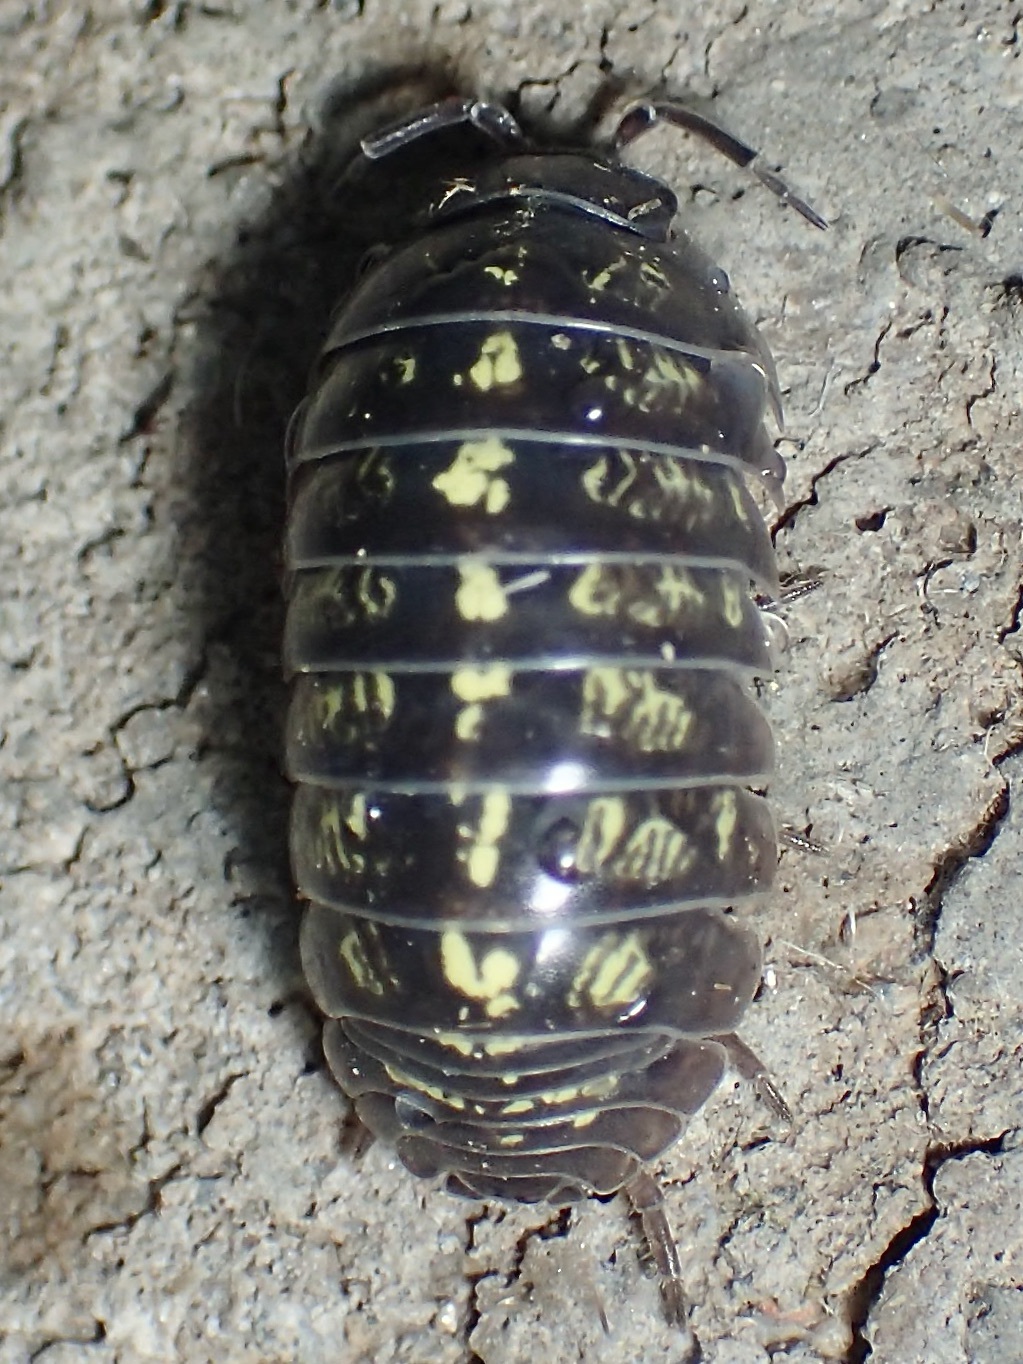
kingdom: Animalia
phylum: Arthropoda
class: Malacostraca
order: Isopoda
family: Armadillidiidae
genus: Armadillidium
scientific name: Armadillidium vulgare
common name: Common pill woodlouse
